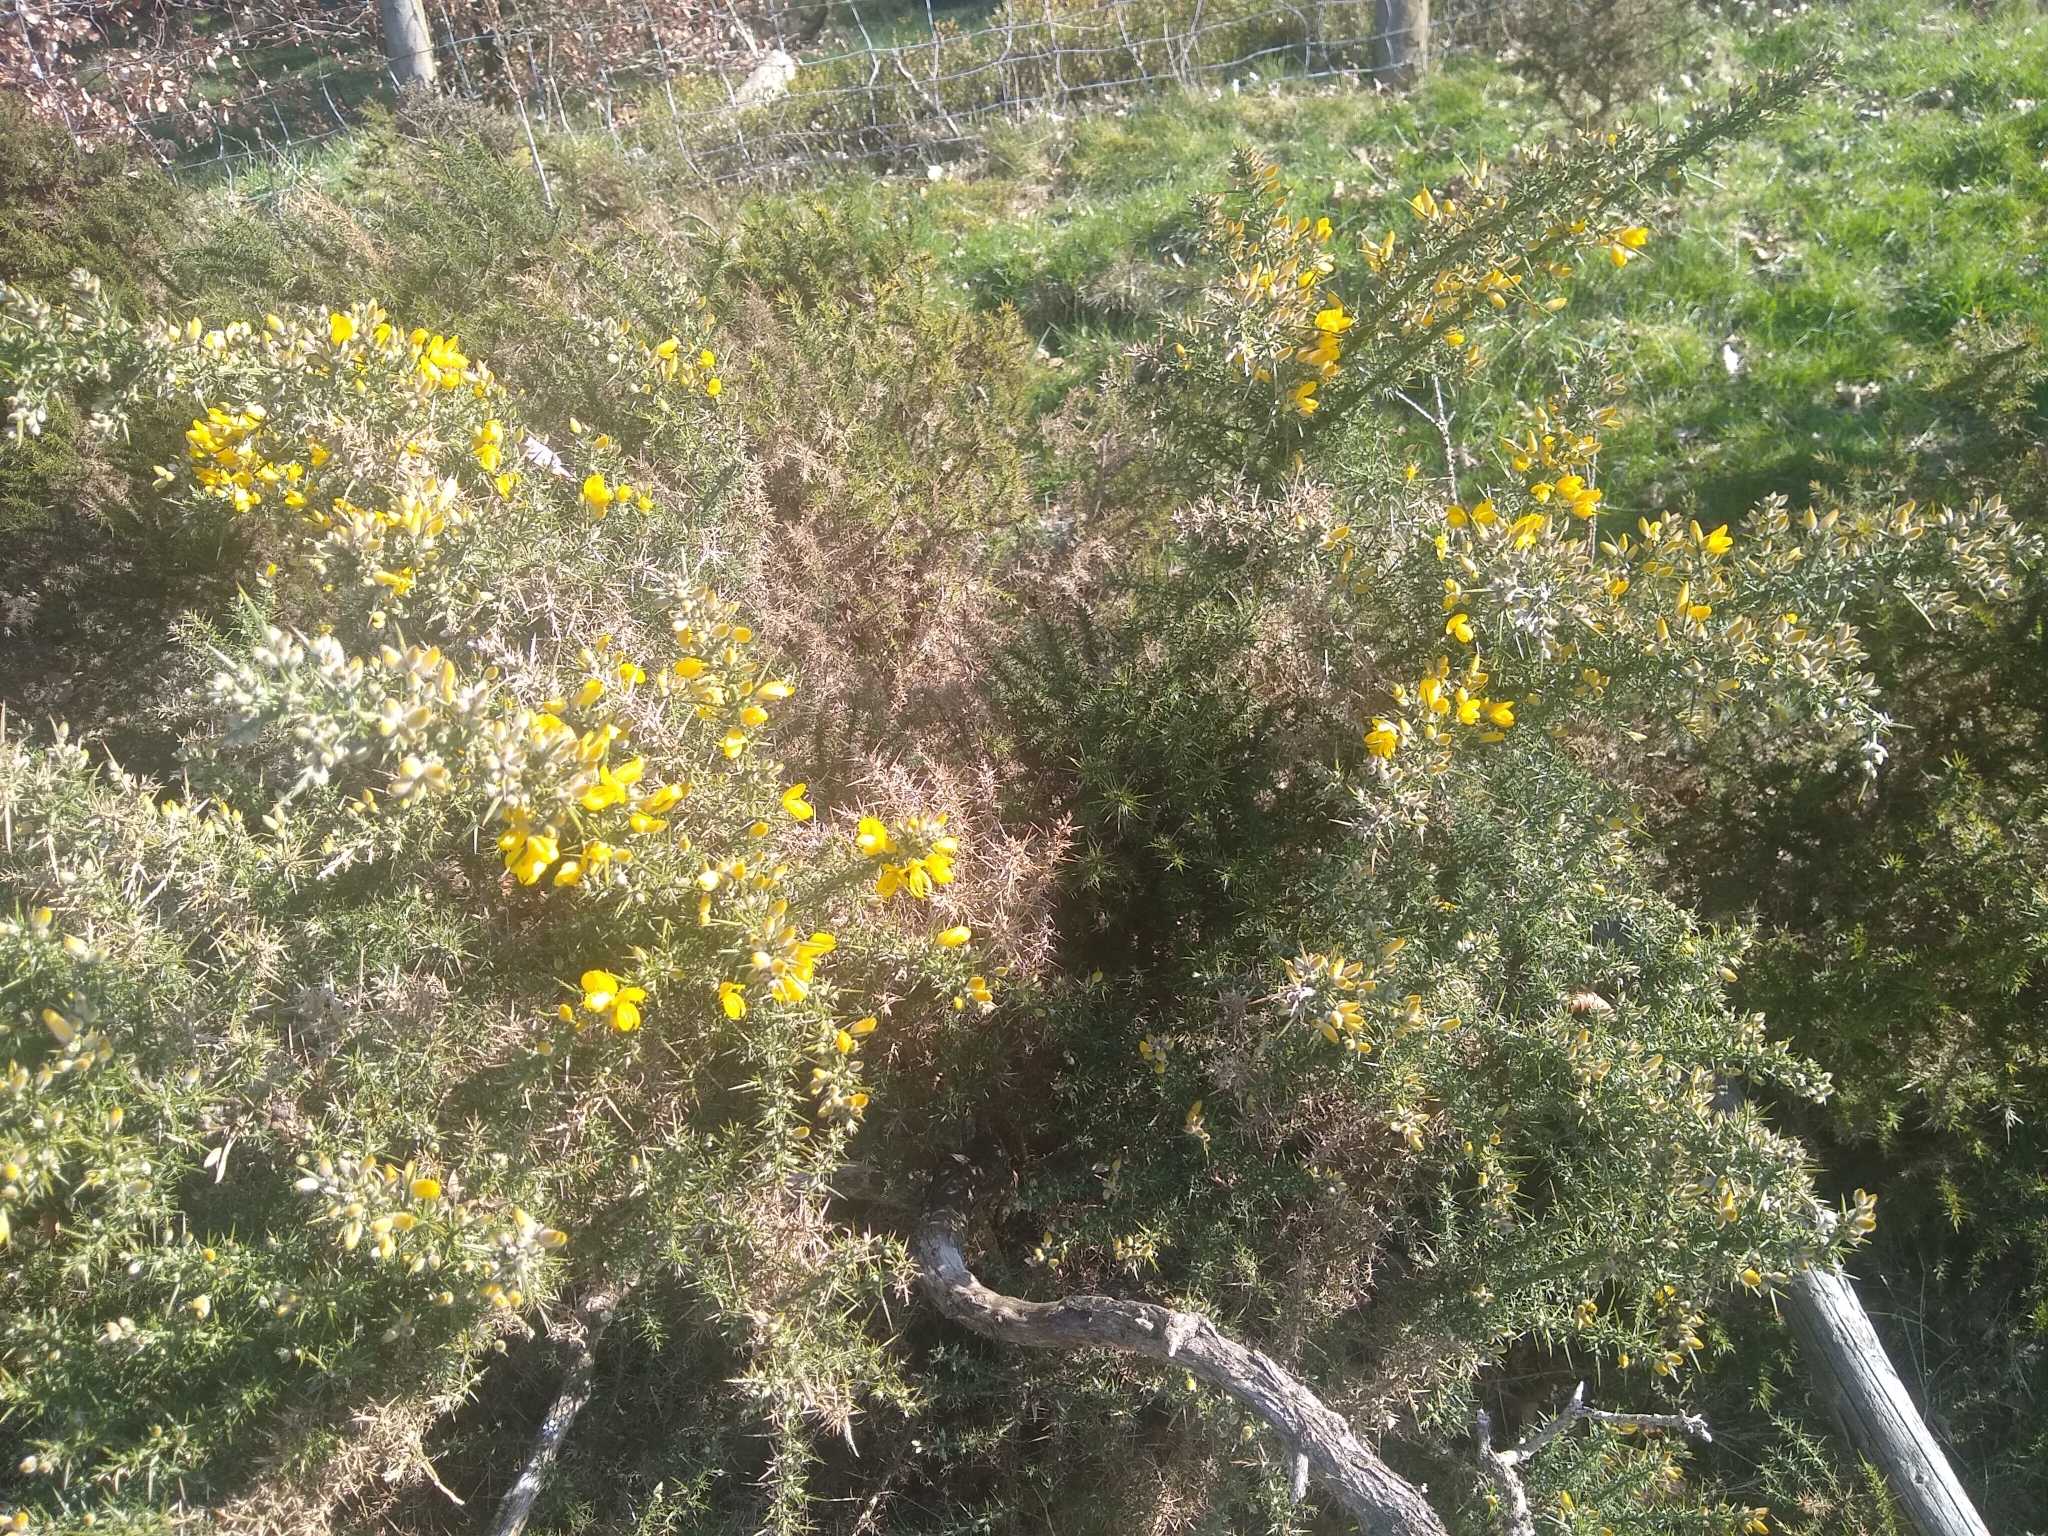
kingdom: Plantae
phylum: Tracheophyta
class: Magnoliopsida
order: Fabales
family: Fabaceae
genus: Ulex
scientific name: Ulex europaeus
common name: Common gorse
